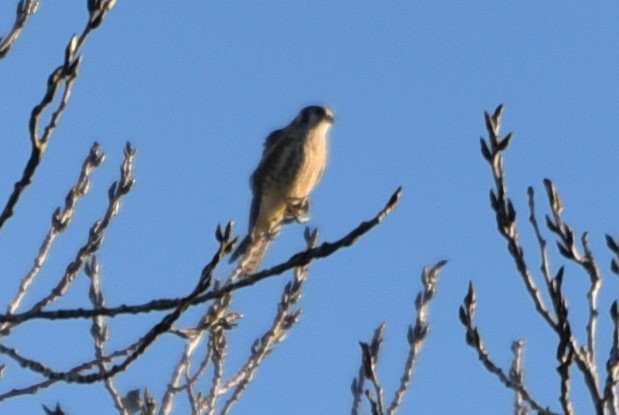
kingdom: Animalia
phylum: Chordata
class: Aves
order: Falconiformes
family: Falconidae
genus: Falco
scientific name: Falco sparverius
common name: American kestrel
